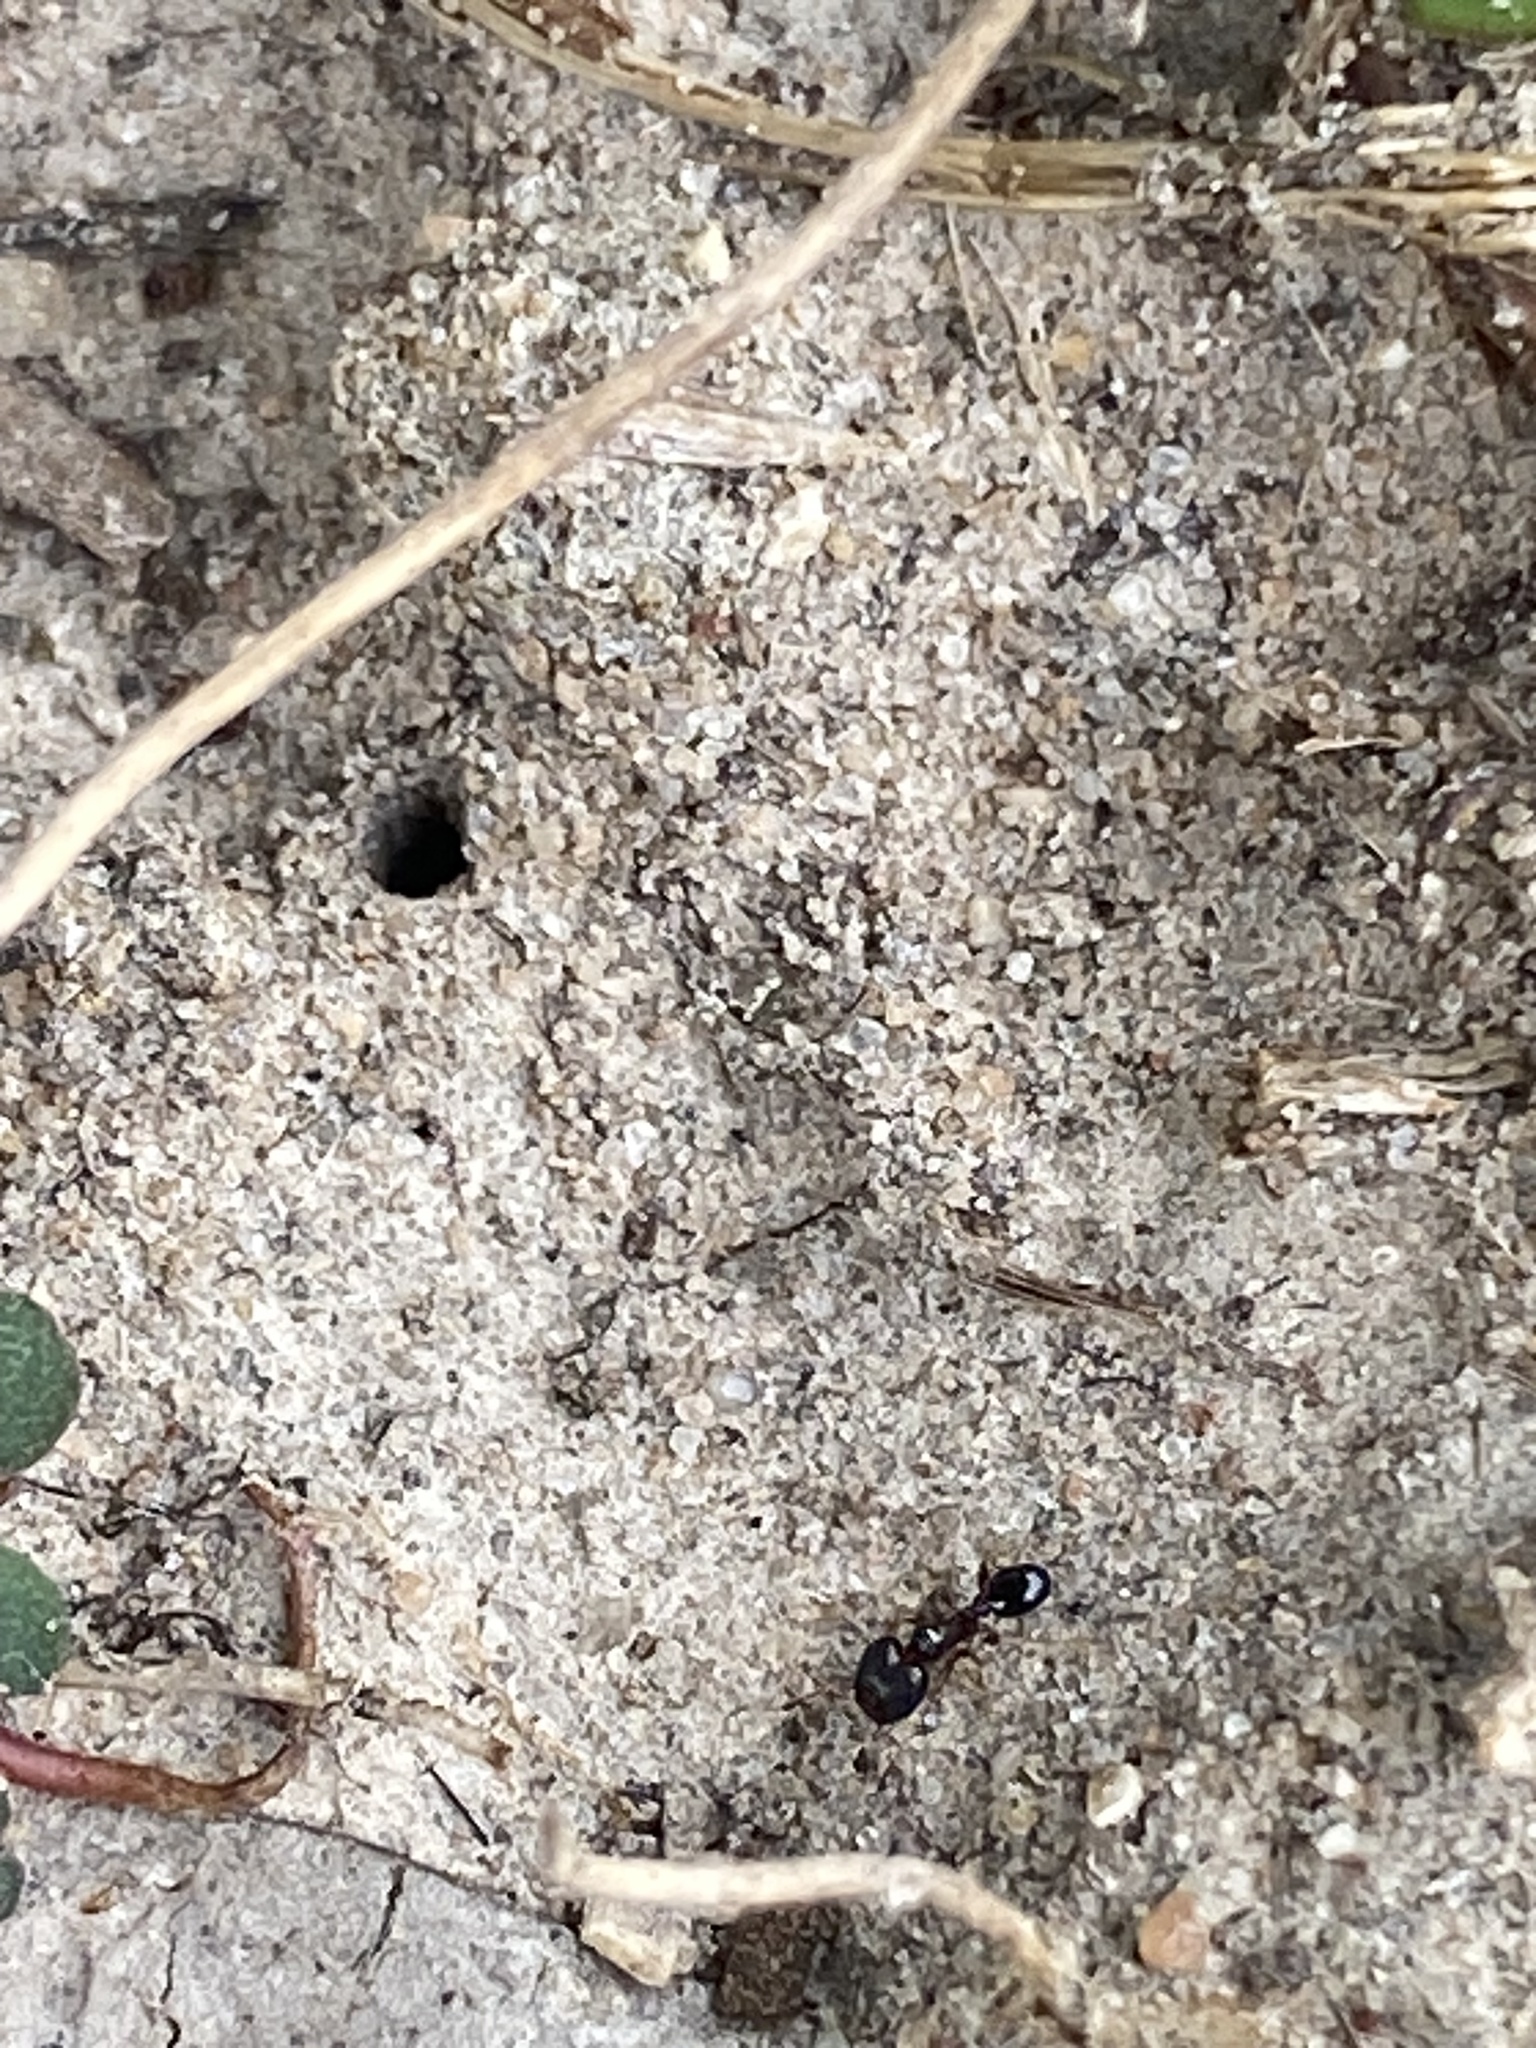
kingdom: Animalia
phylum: Arthropoda
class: Insecta
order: Hymenoptera
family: Formicidae
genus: Pheidole
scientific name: Pheidole metallescens
